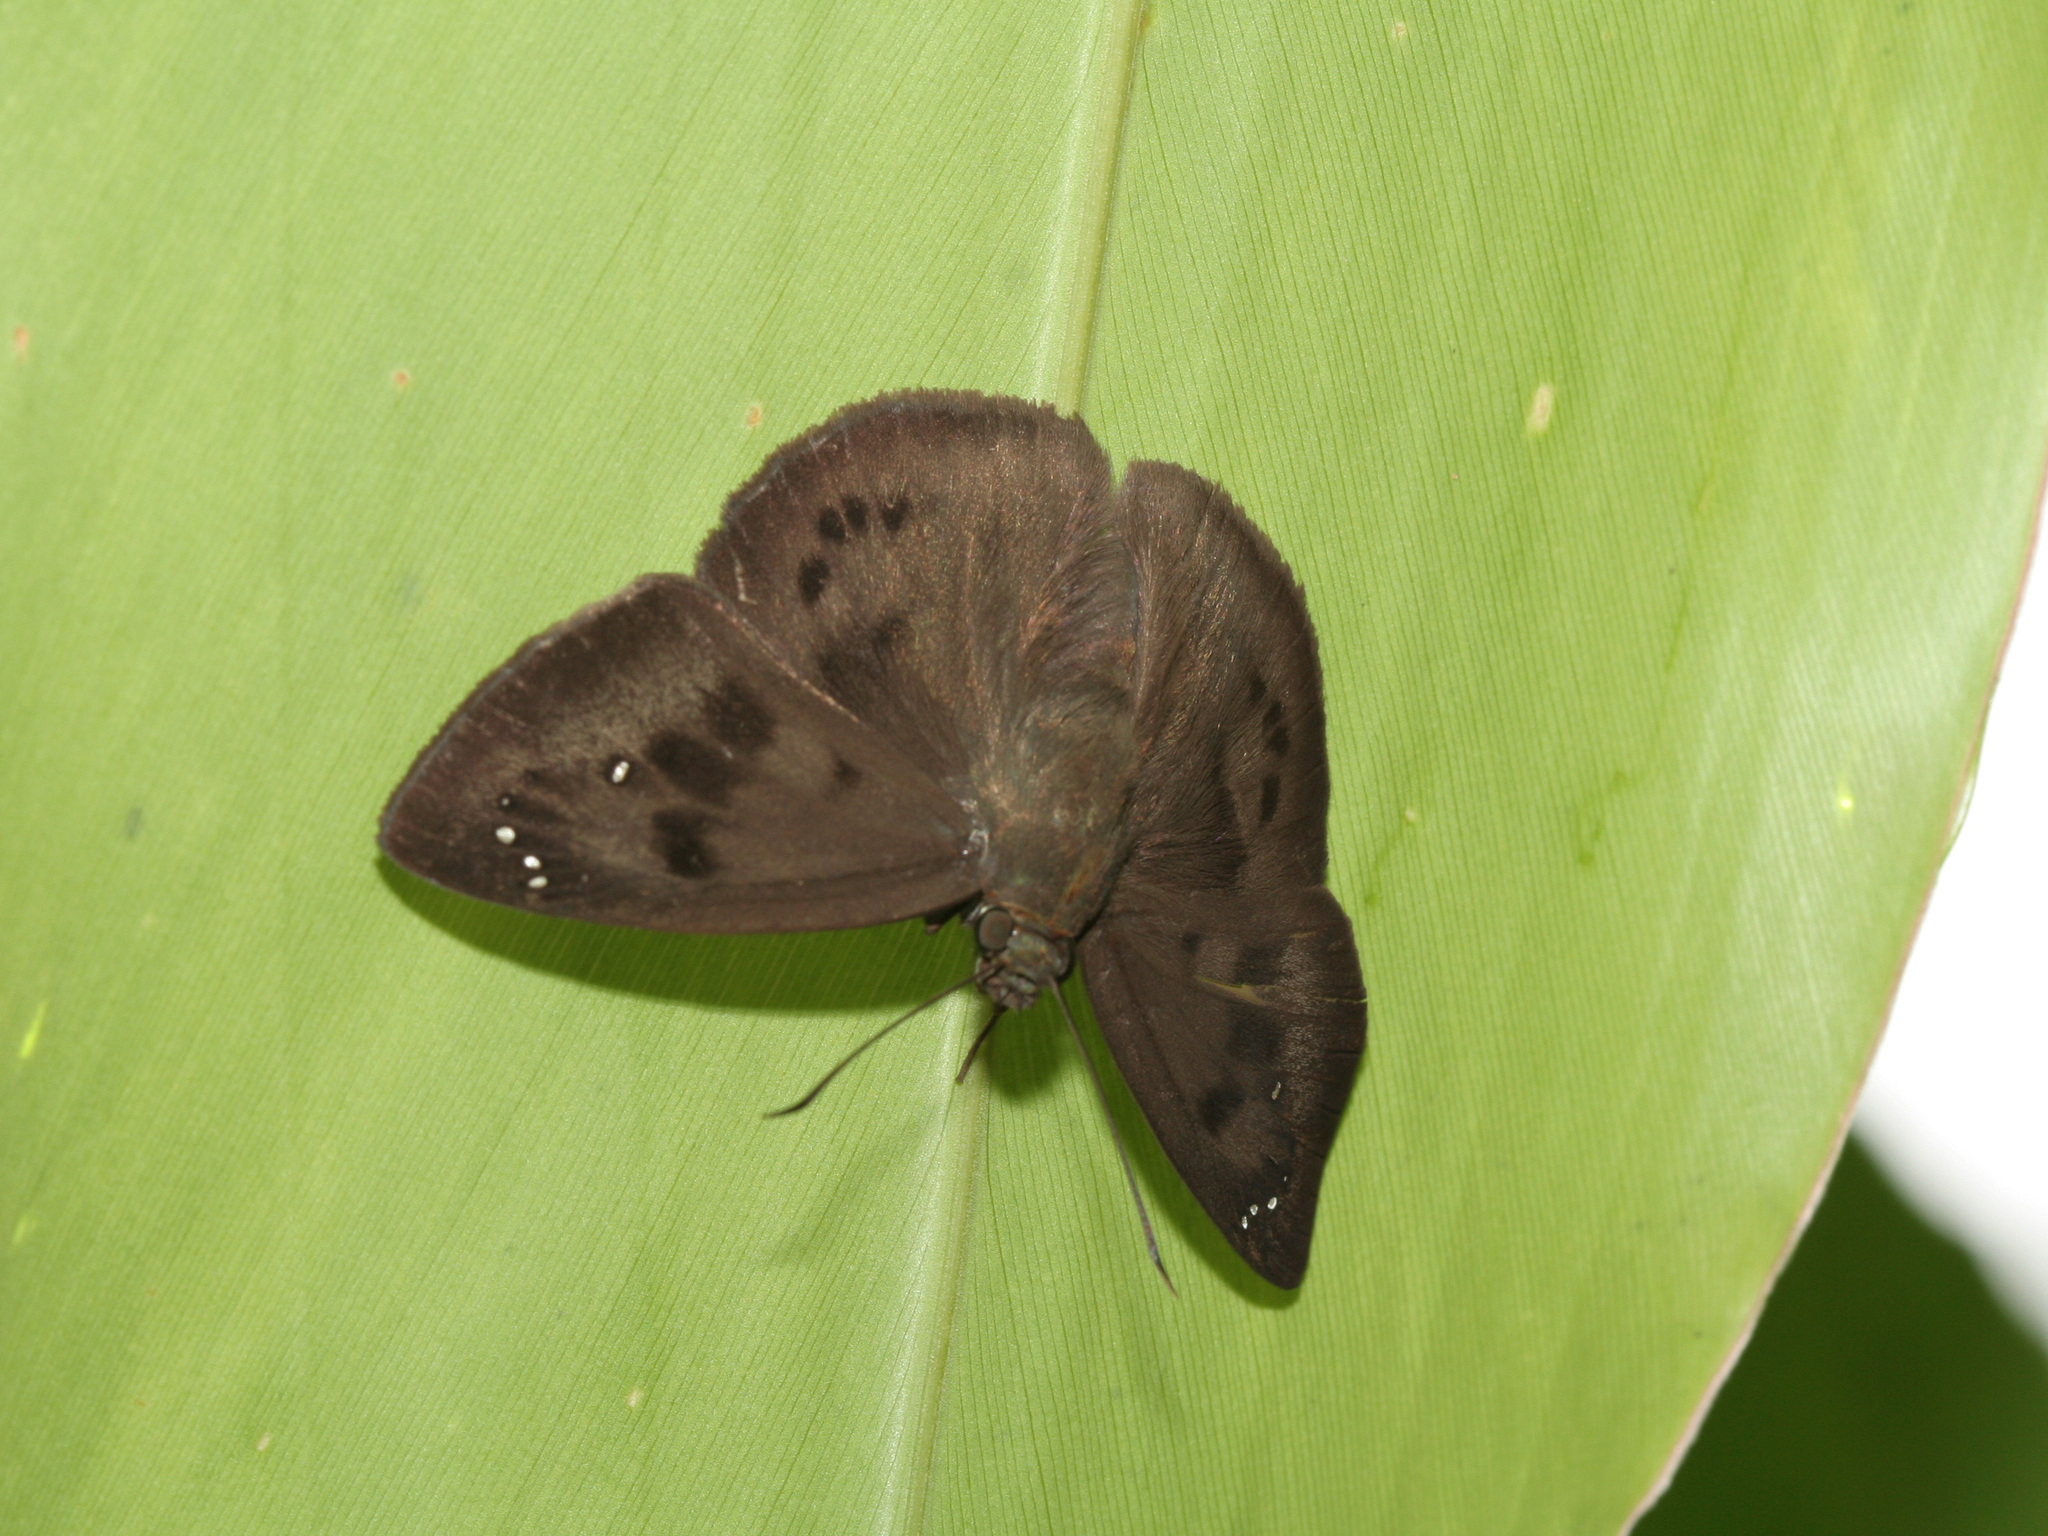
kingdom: Animalia
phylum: Arthropoda
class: Insecta
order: Lepidoptera
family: Hesperiidae
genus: Tagiades
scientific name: Tagiades japetus
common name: Pied flat
